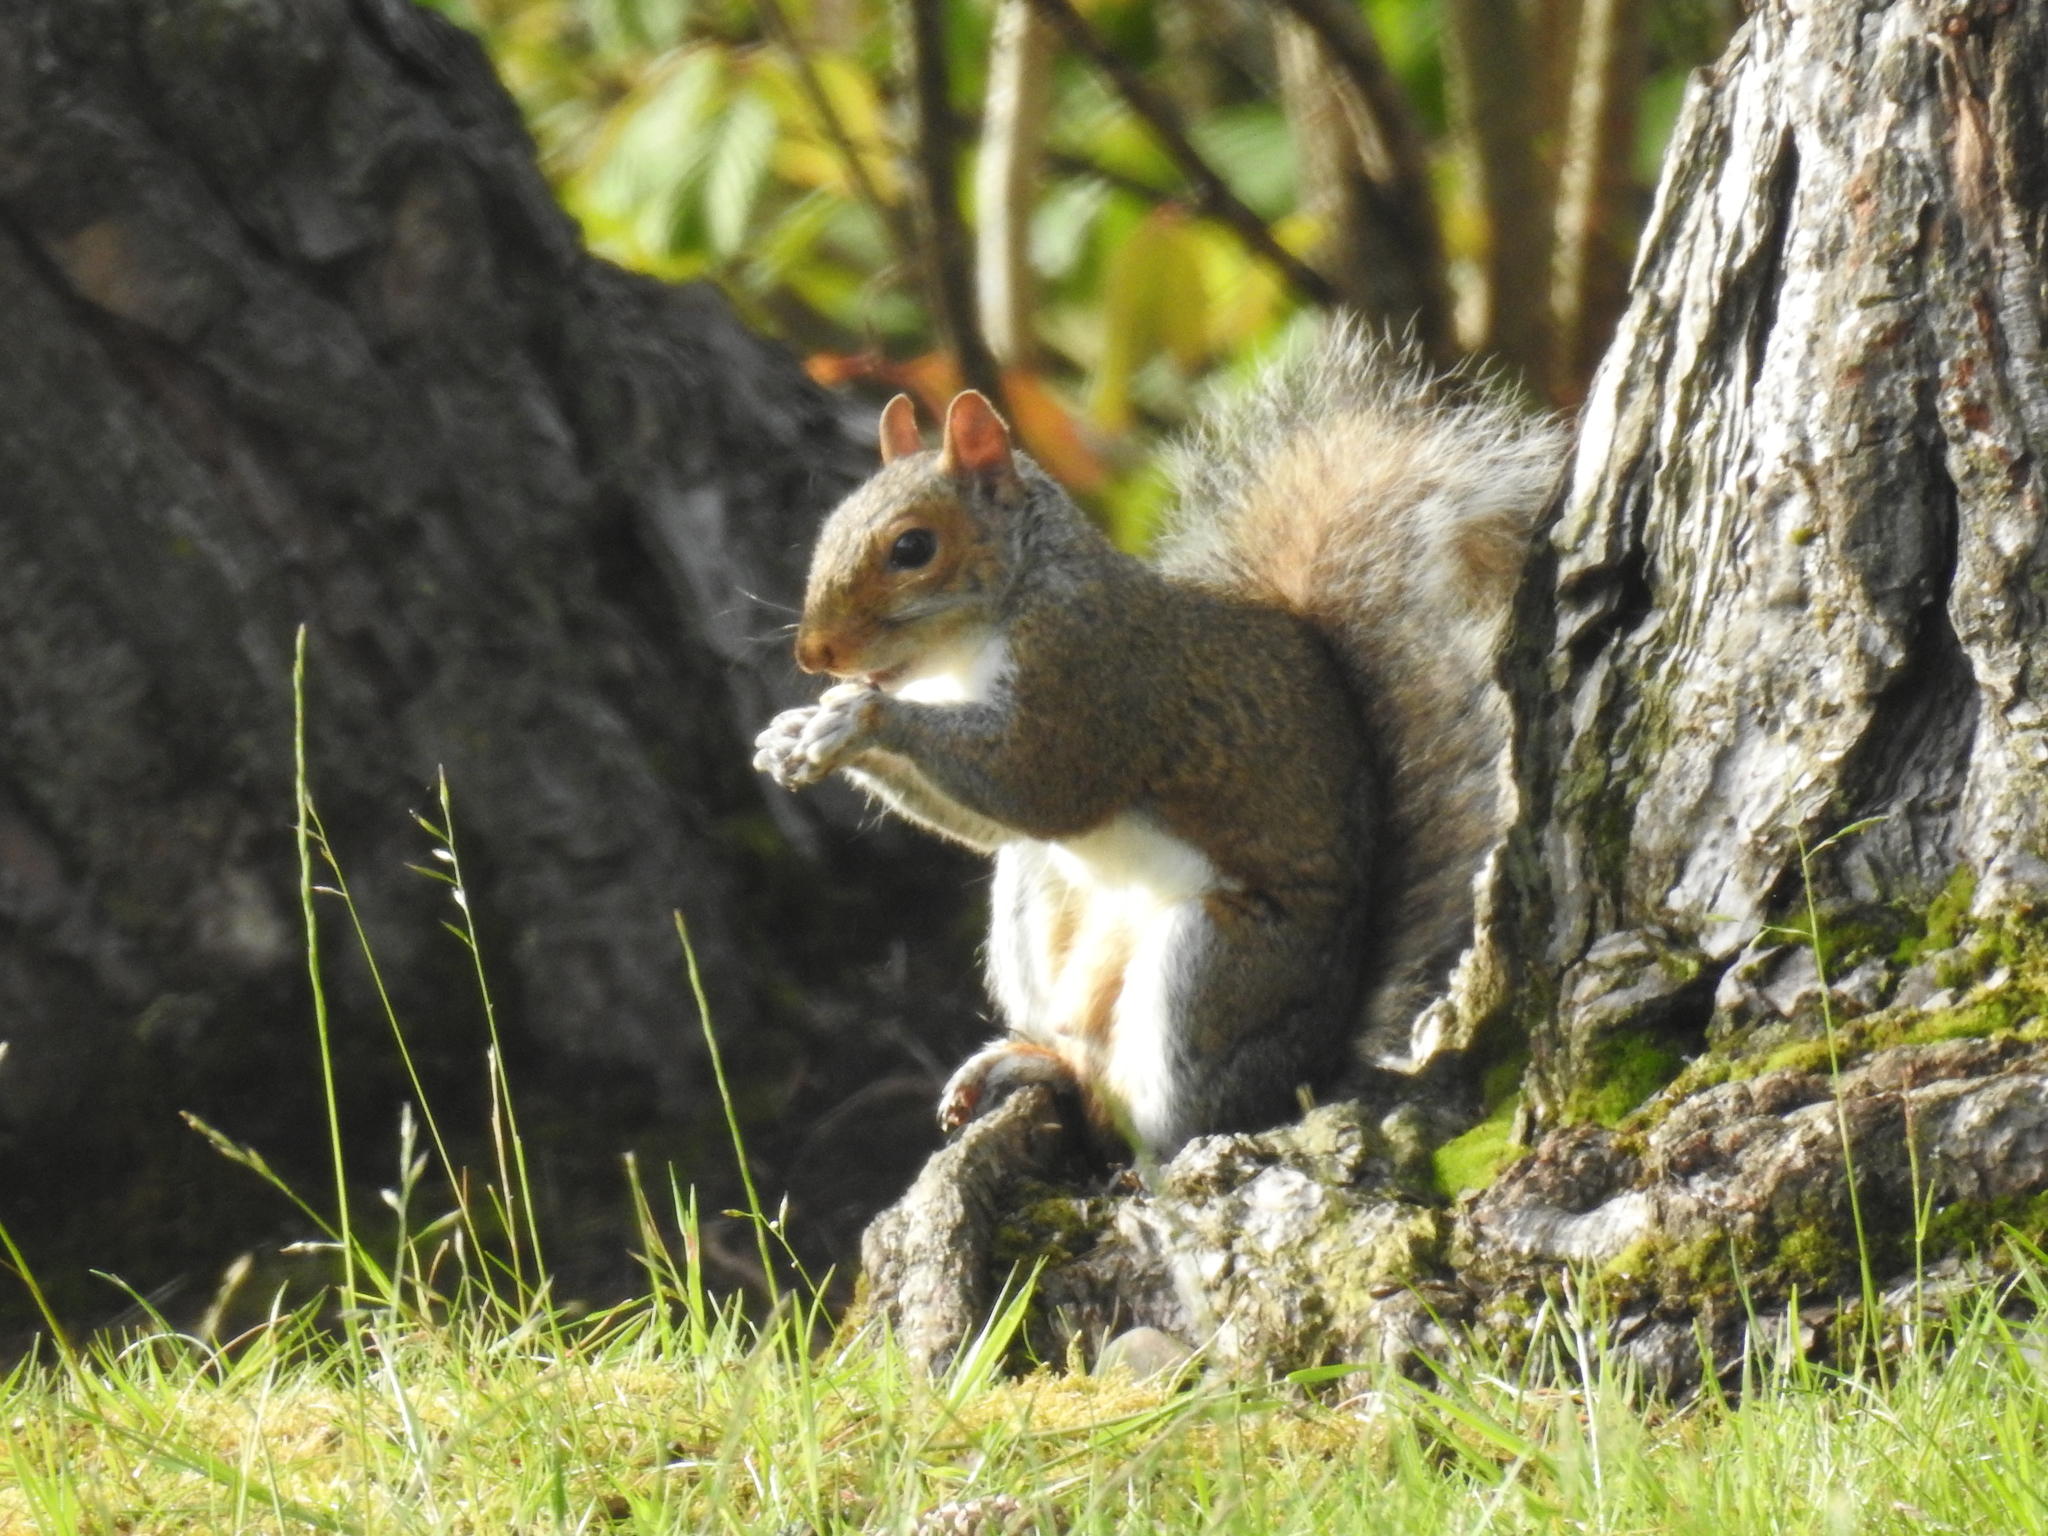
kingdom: Animalia
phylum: Chordata
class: Mammalia
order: Rodentia
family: Sciuridae
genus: Sciurus
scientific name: Sciurus carolinensis
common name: Eastern gray squirrel
